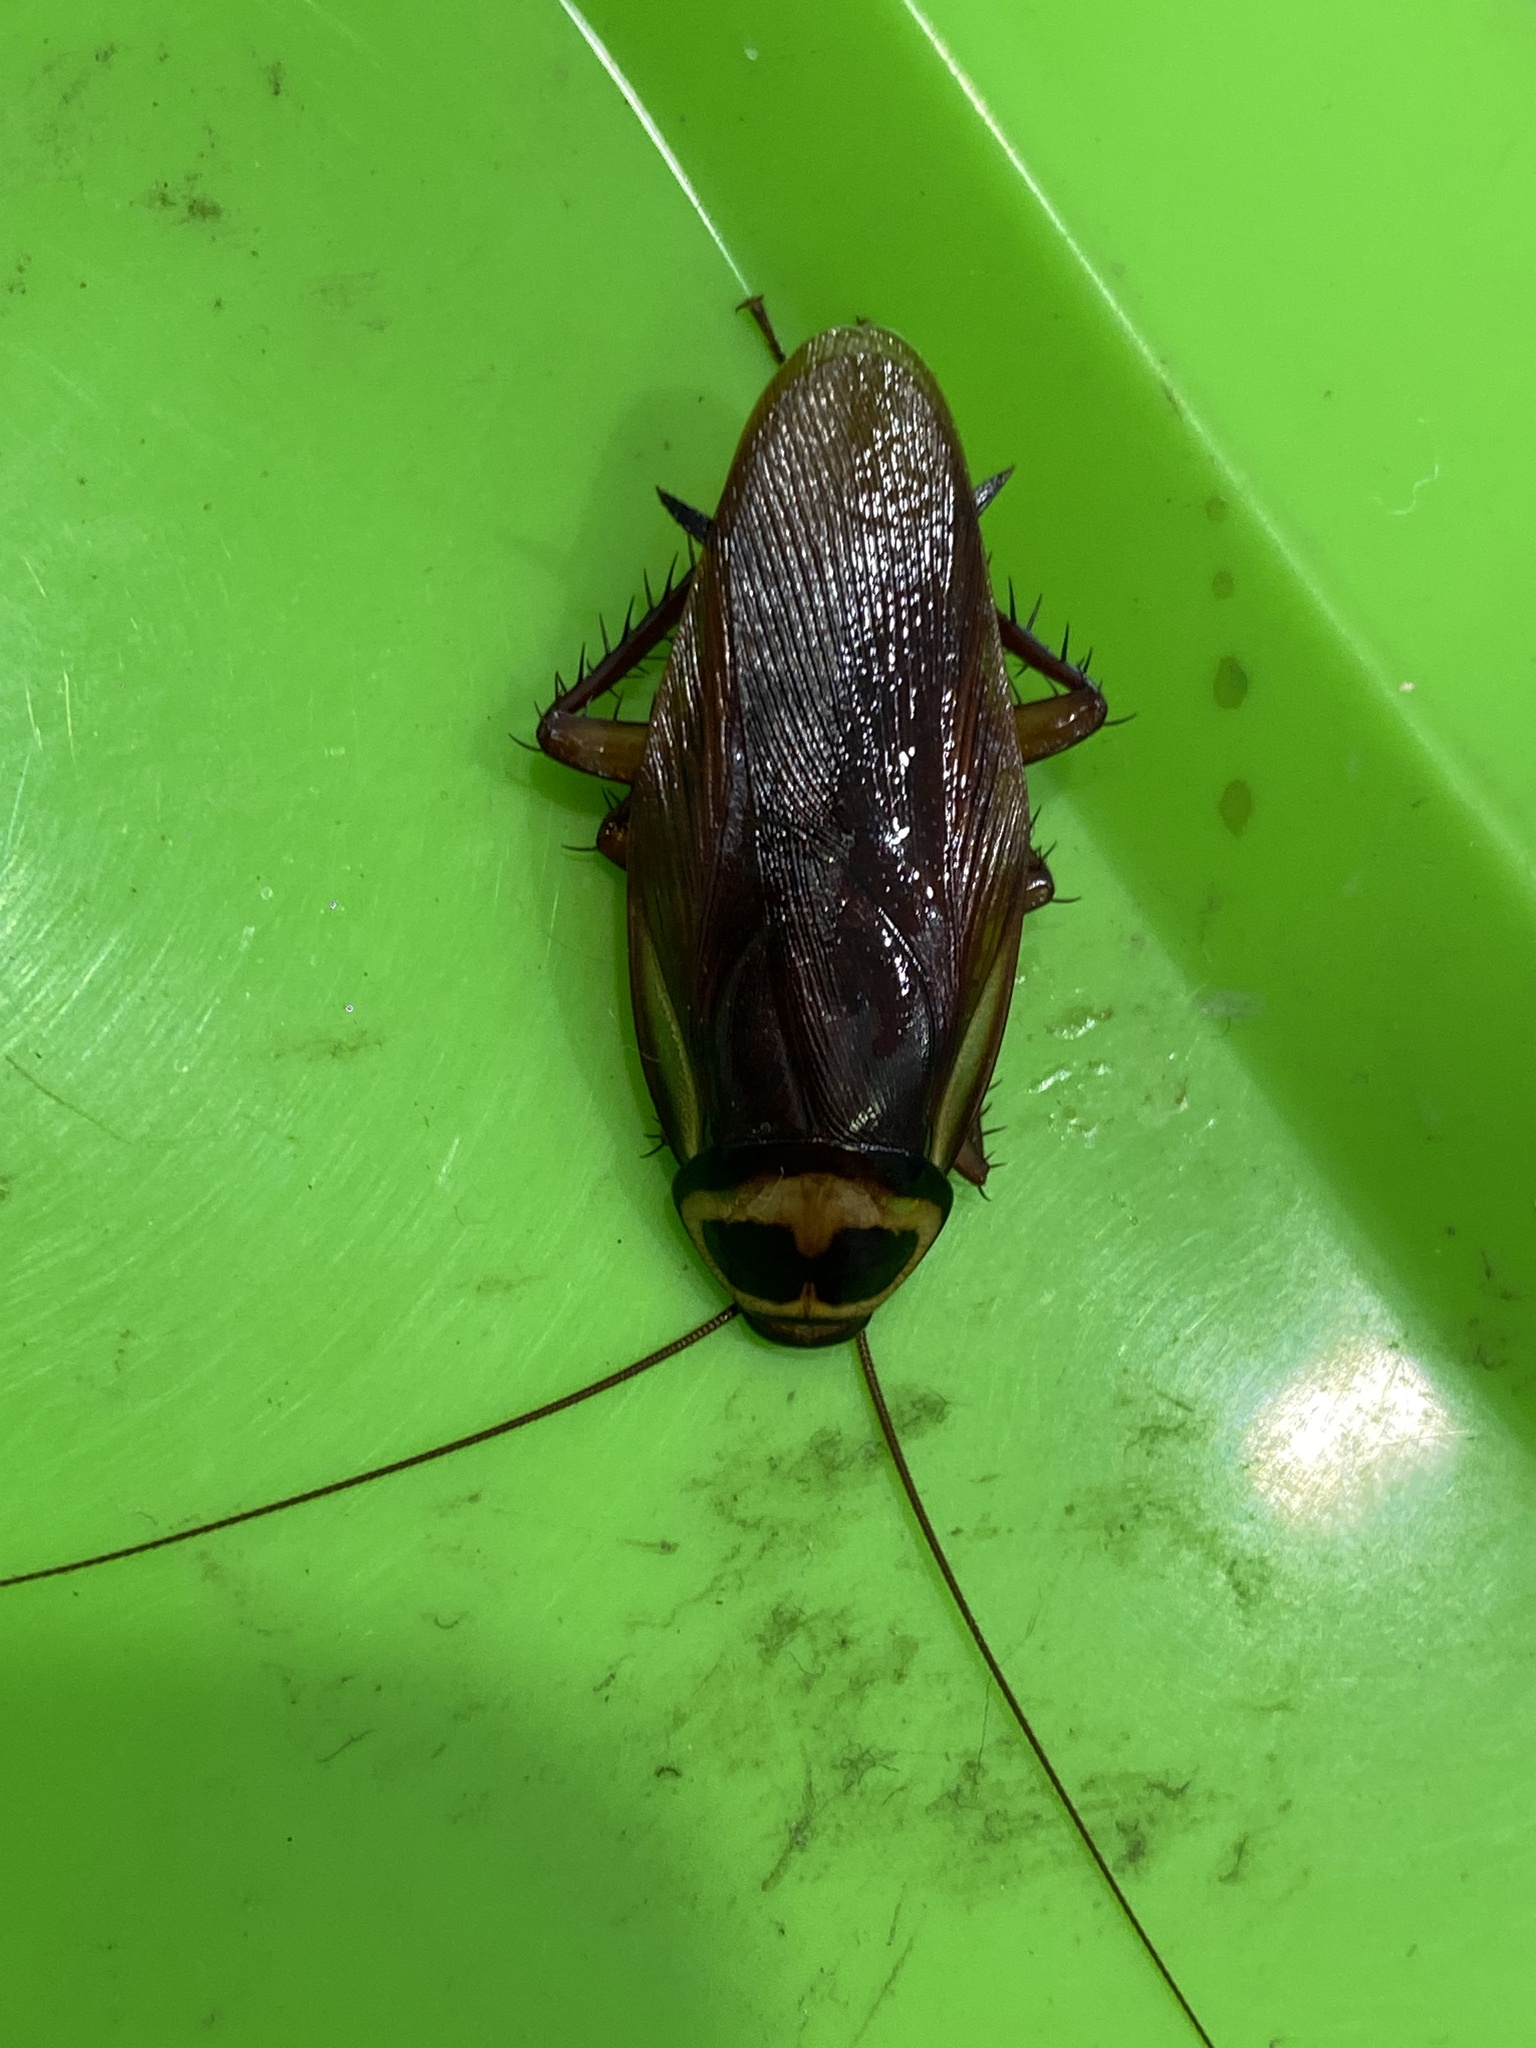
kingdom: Animalia
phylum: Arthropoda
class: Insecta
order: Blattodea
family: Blattidae
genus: Periplaneta
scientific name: Periplaneta australasiae
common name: Australian cockroach
